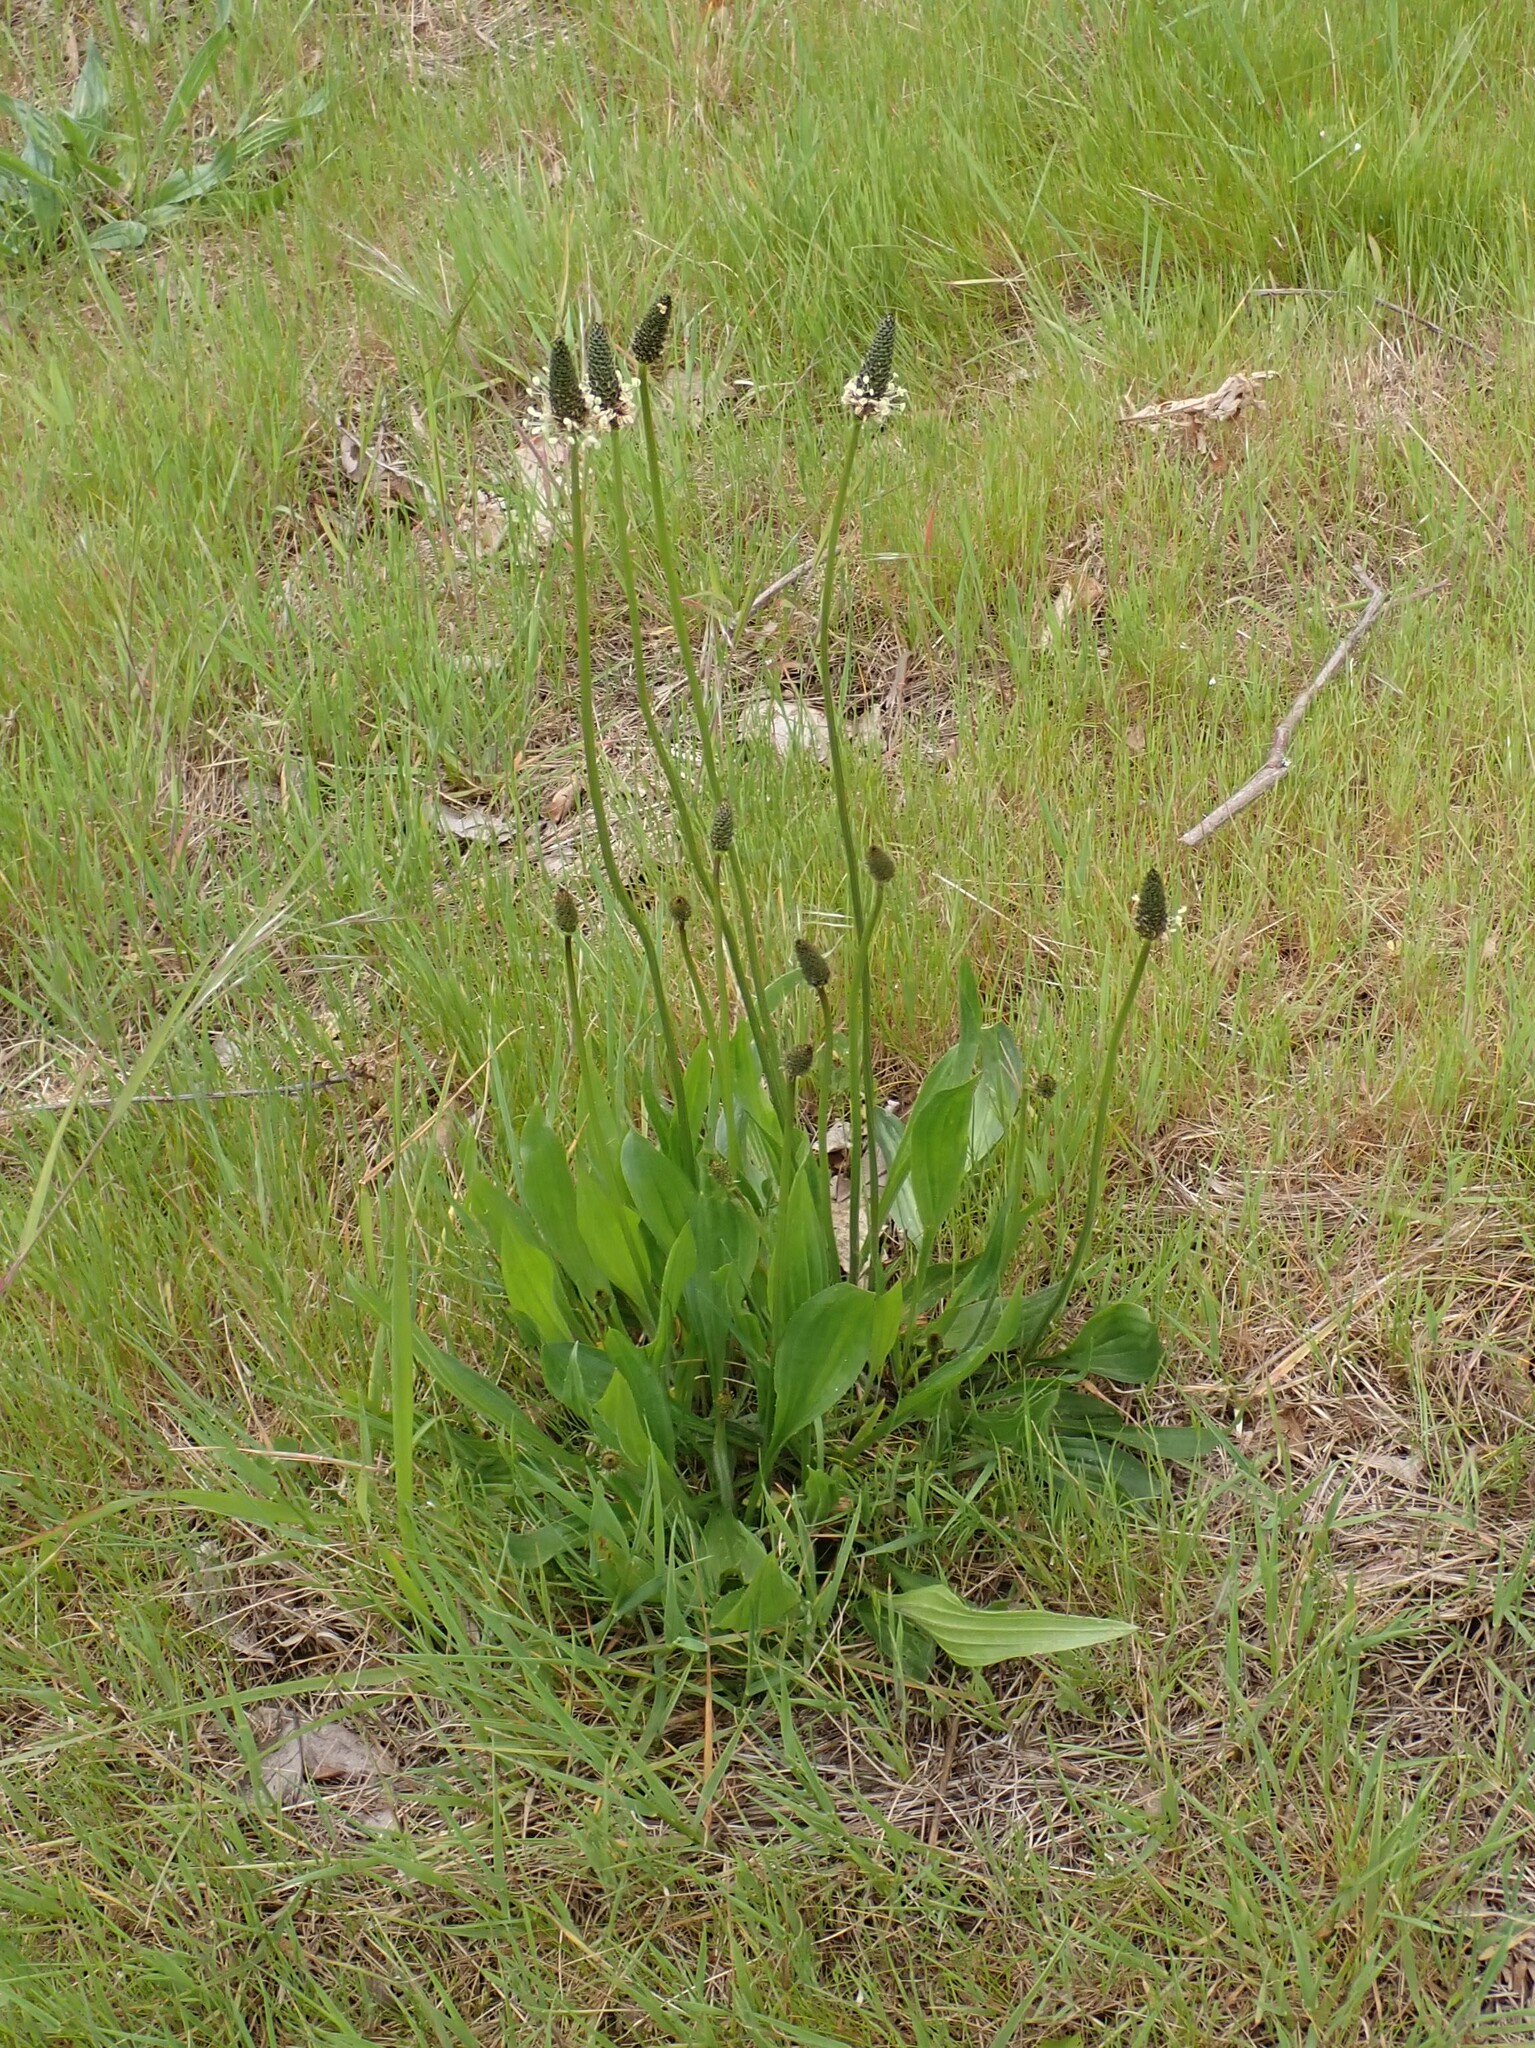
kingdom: Plantae
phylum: Tracheophyta
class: Magnoliopsida
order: Lamiales
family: Plantaginaceae
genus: Plantago
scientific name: Plantago lanceolata
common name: Ribwort plantain
